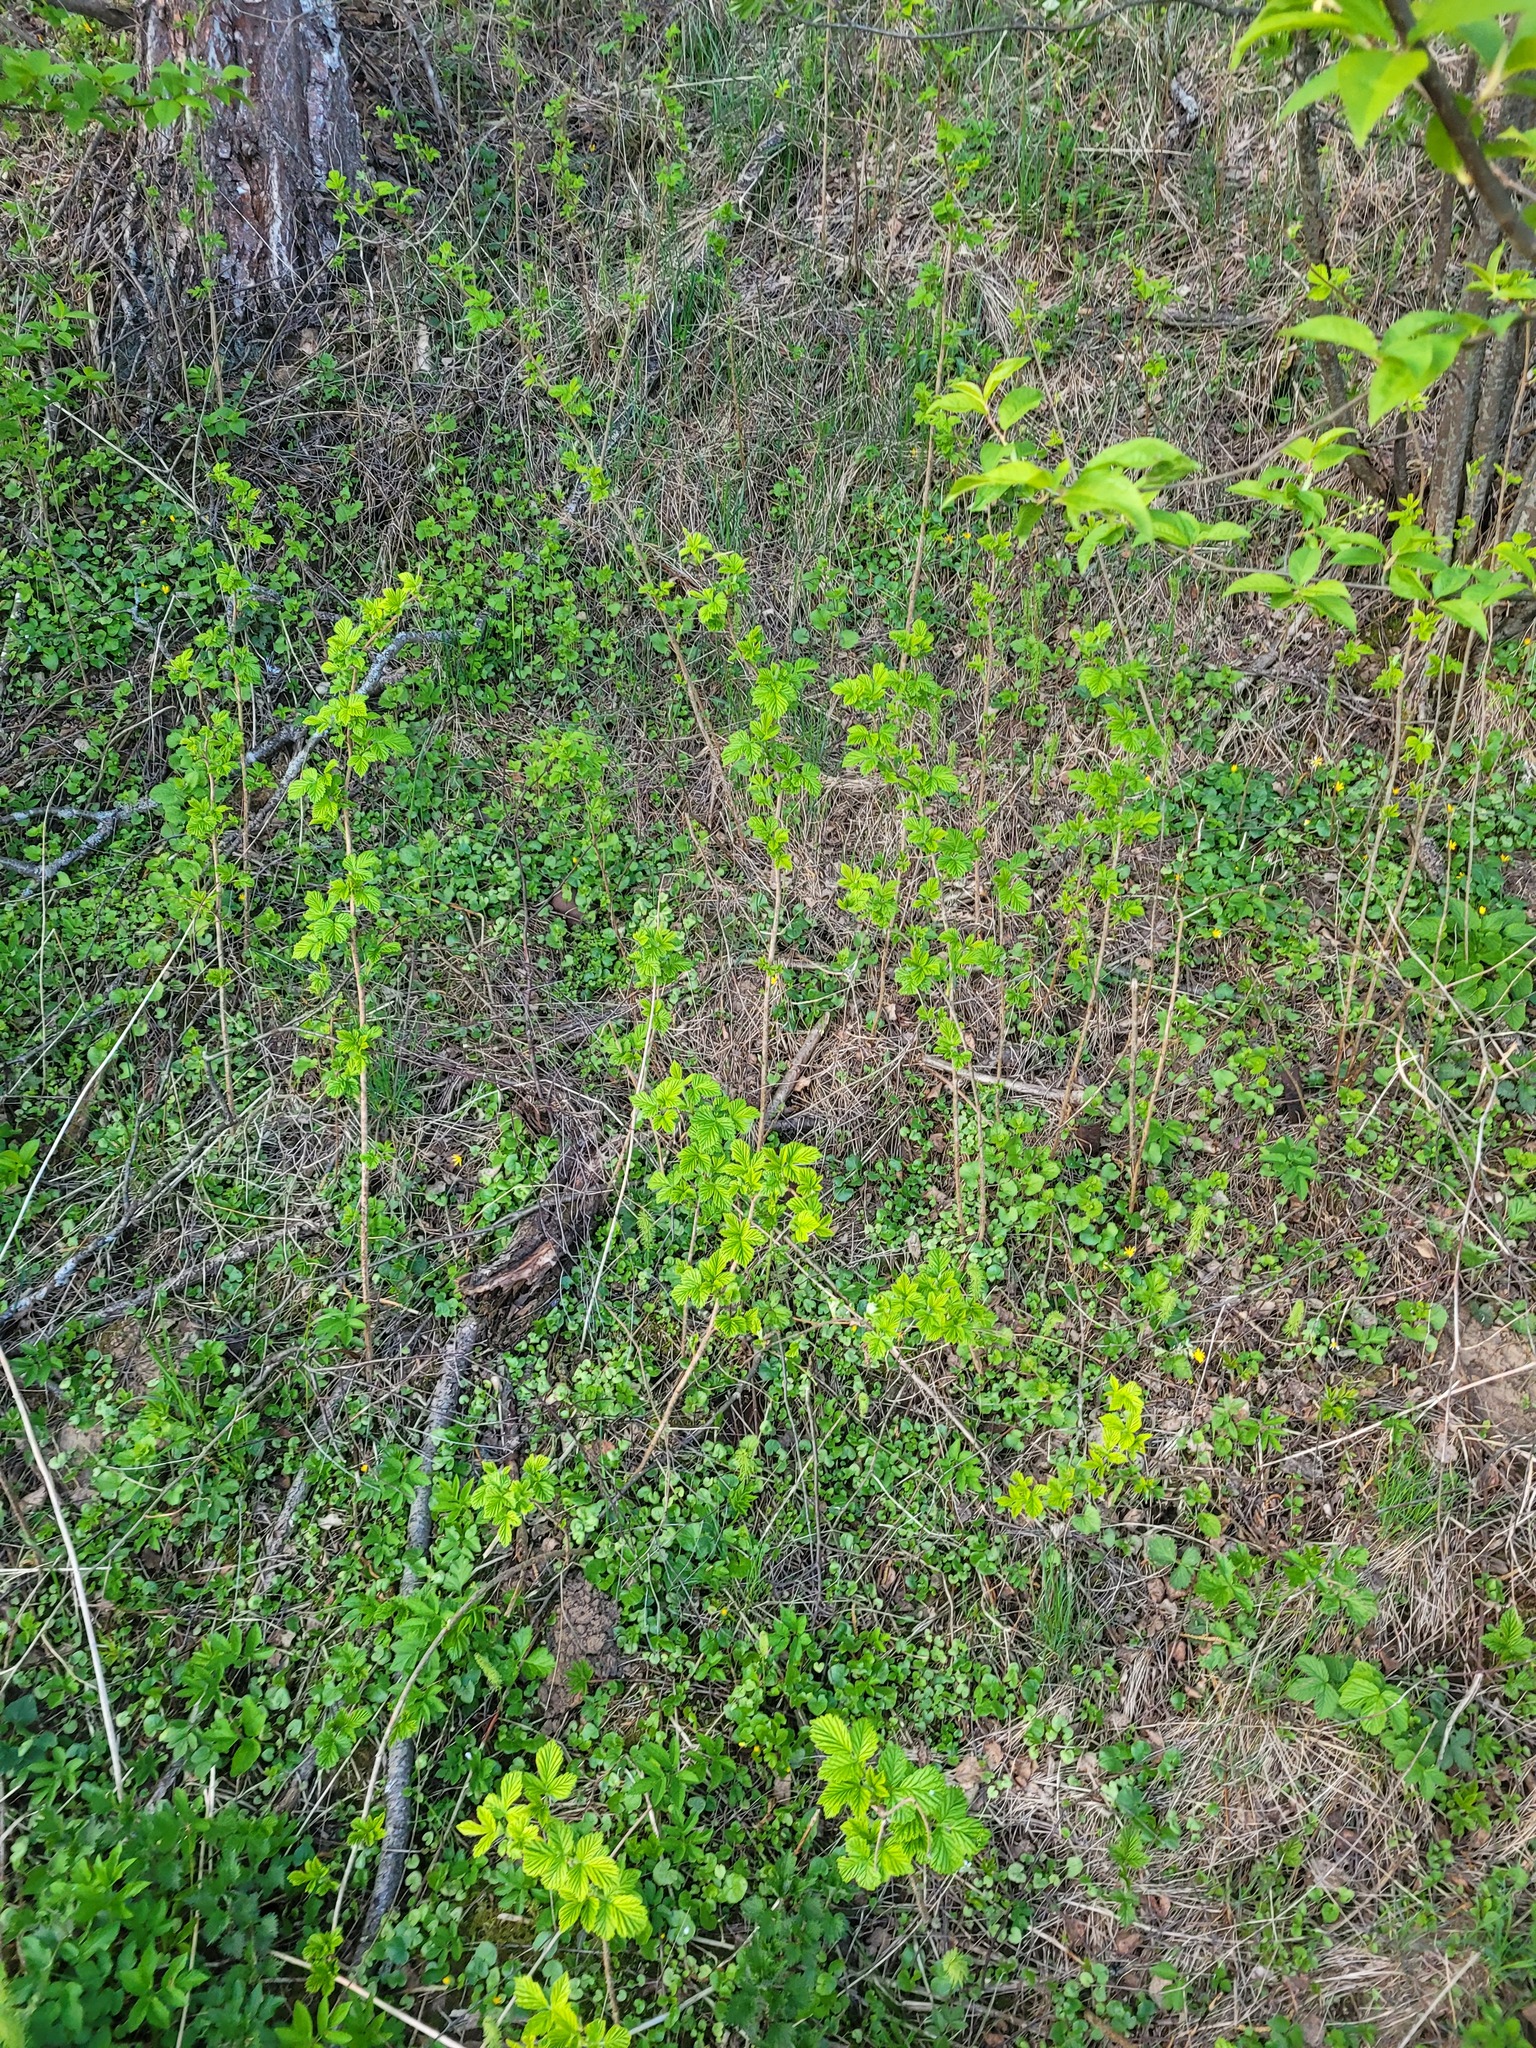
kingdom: Plantae
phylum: Tracheophyta
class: Magnoliopsida
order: Rosales
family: Rosaceae
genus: Rubus
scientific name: Rubus idaeus
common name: Raspberry
